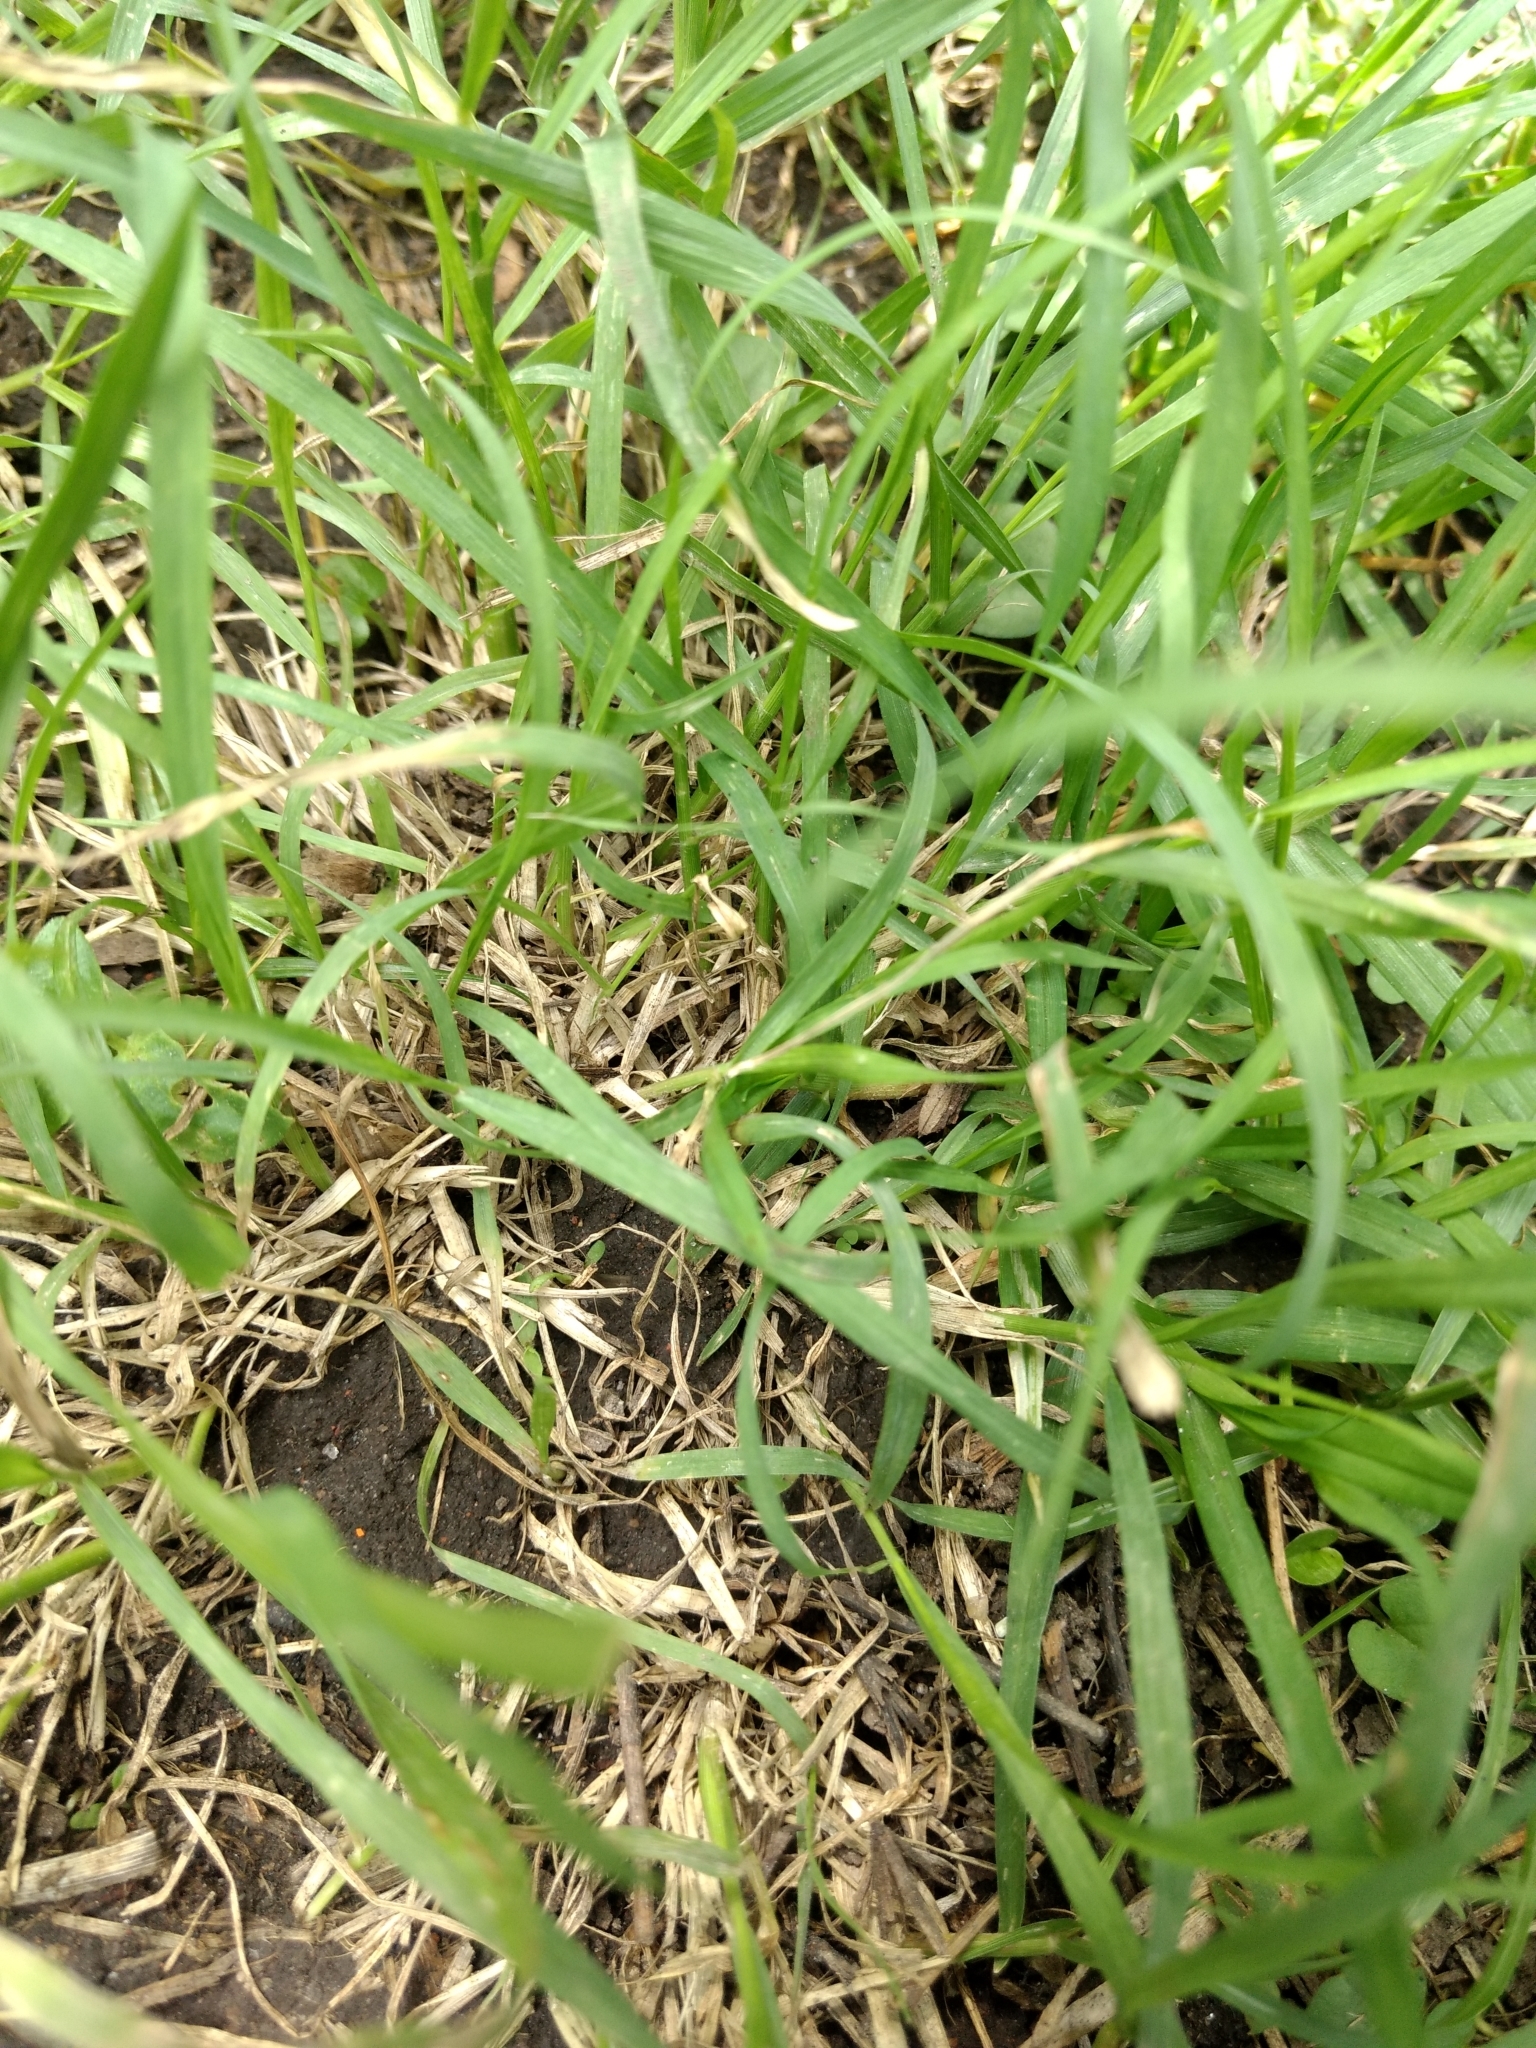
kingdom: Plantae
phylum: Tracheophyta
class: Liliopsida
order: Poales
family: Poaceae
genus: Cenchrus
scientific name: Cenchrus clandestinus
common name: Kikuyugrass
